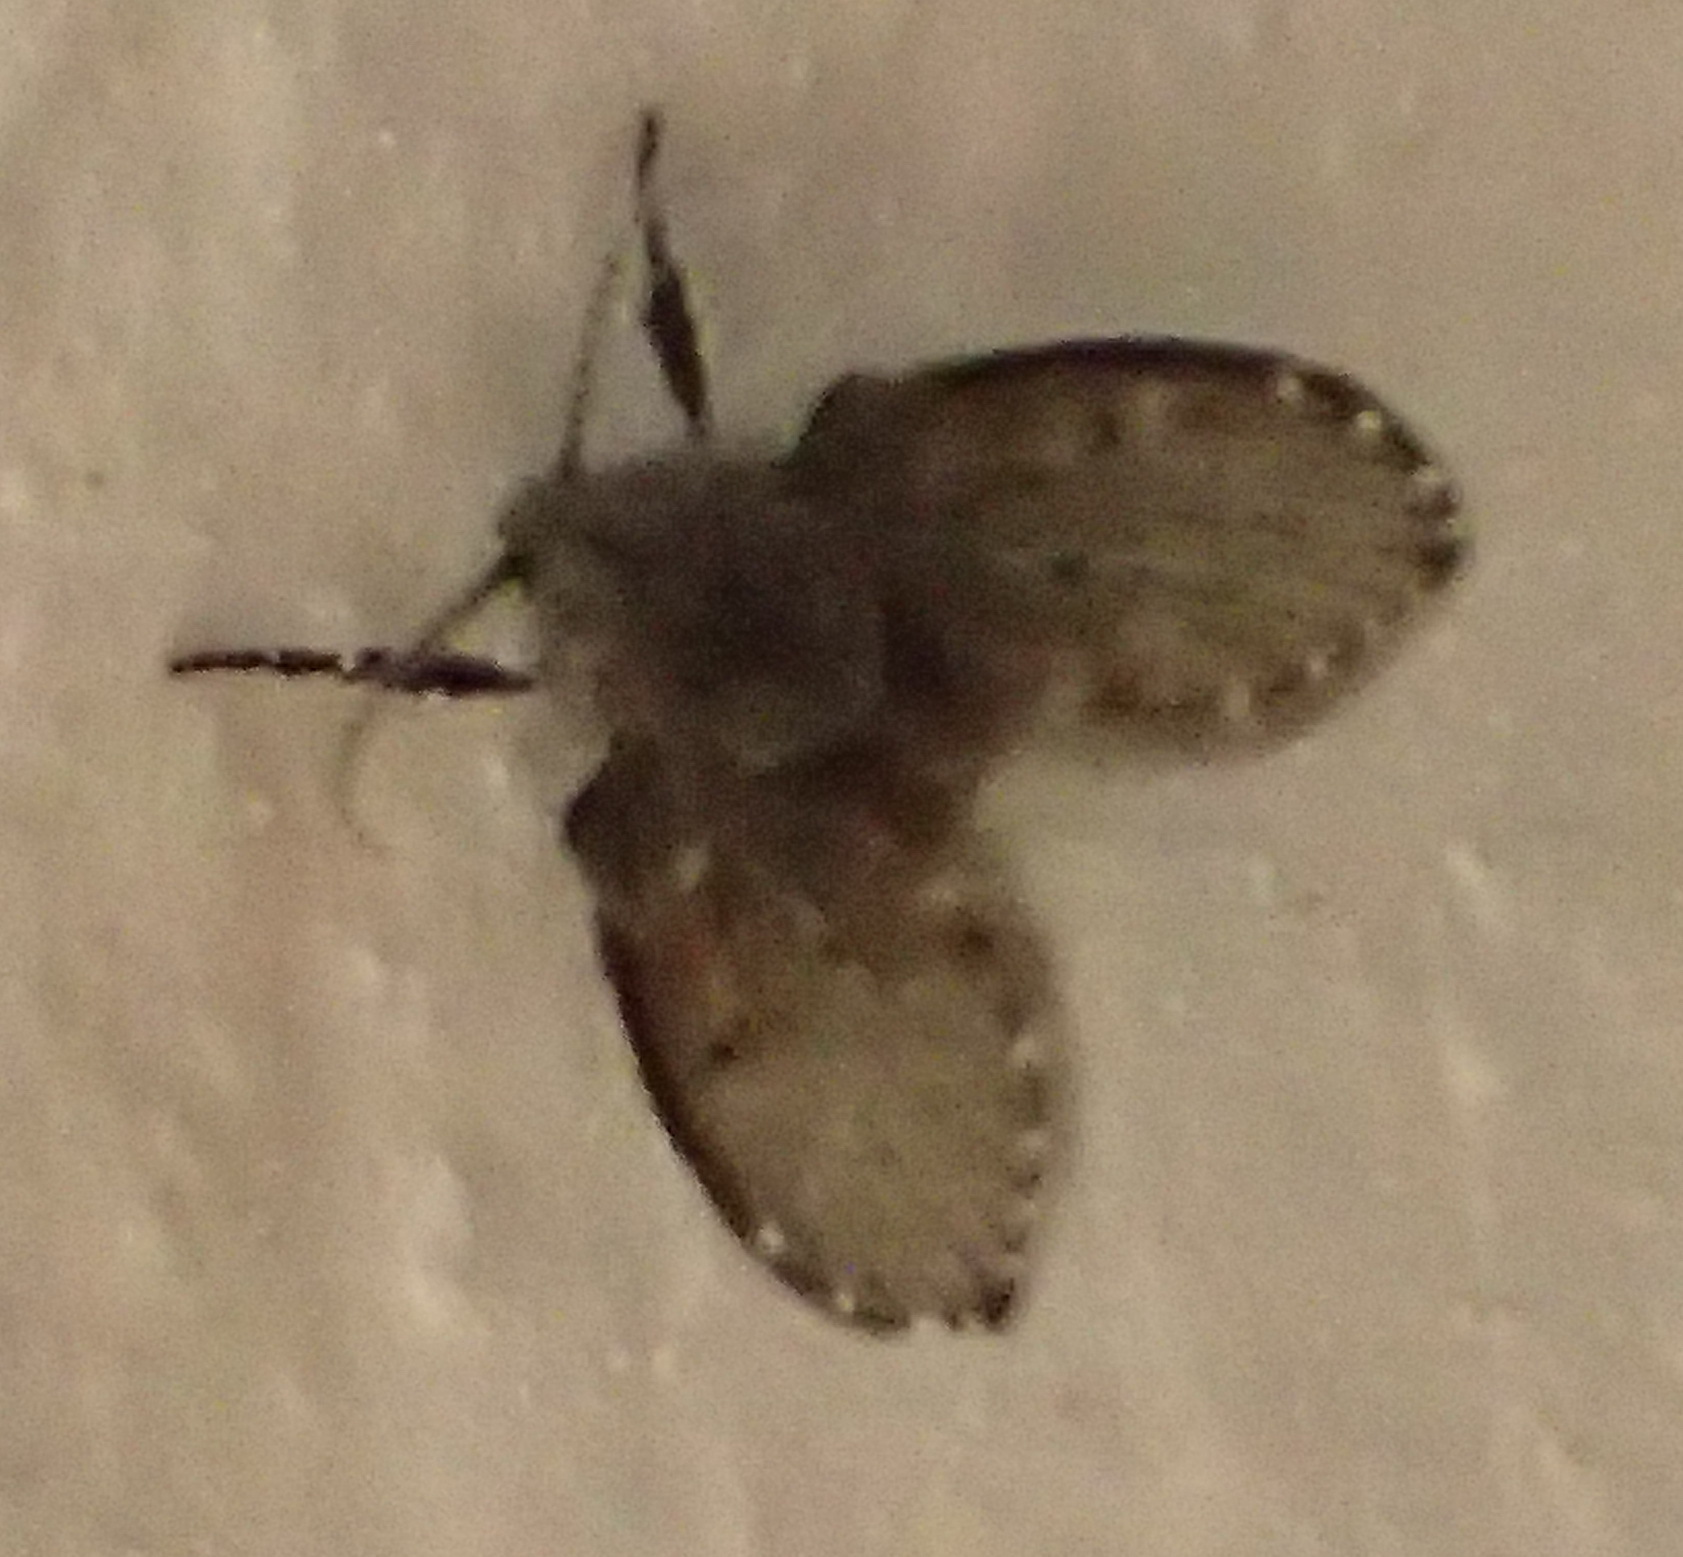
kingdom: Animalia
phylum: Arthropoda
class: Insecta
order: Diptera
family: Psychodidae
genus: Clogmia
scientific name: Clogmia albipunctatus
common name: White-spotted moth fly
